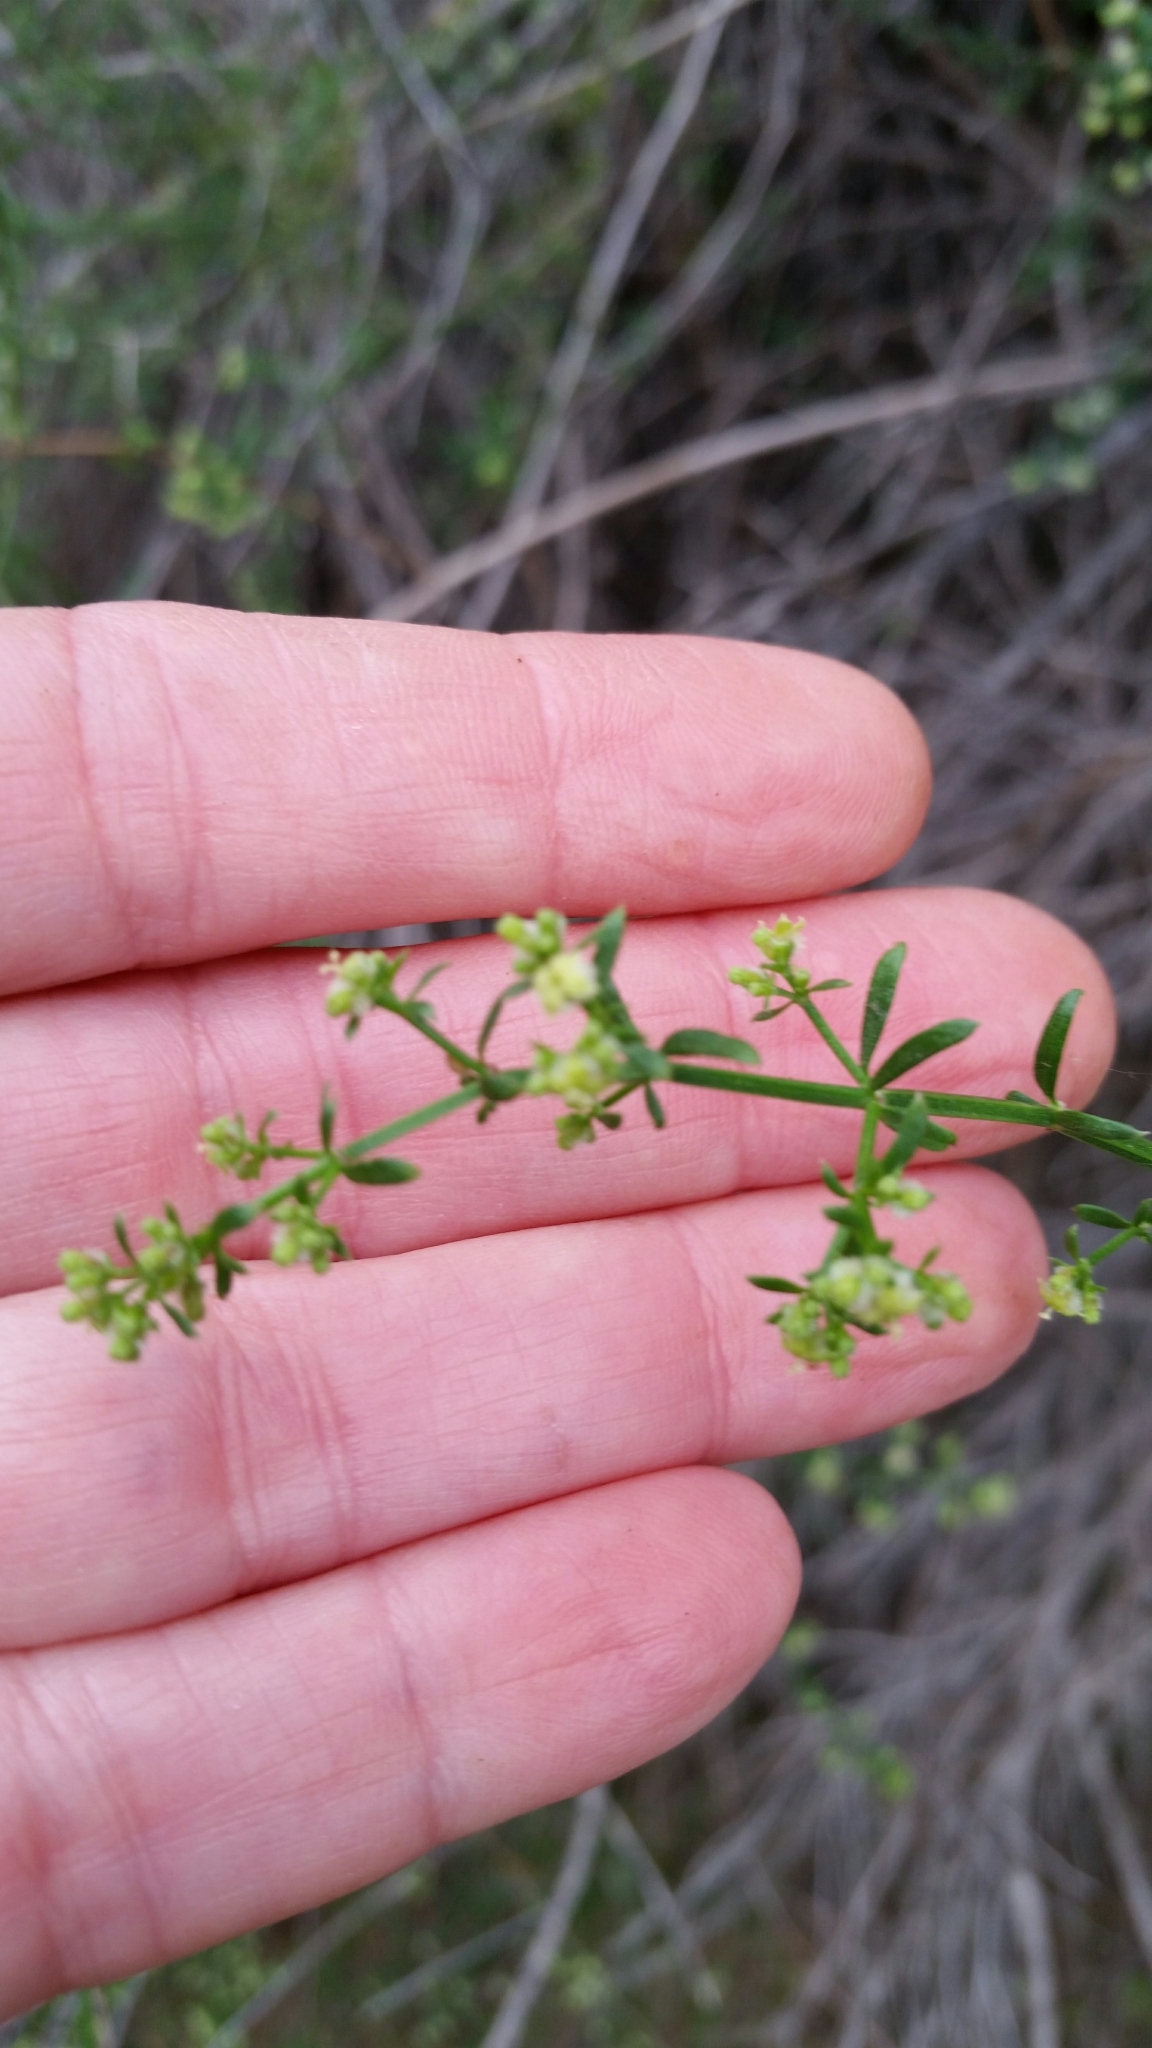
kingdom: Plantae
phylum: Tracheophyta
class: Magnoliopsida
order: Gentianales
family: Rubiaceae
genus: Galium
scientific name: Galium angustifolium
